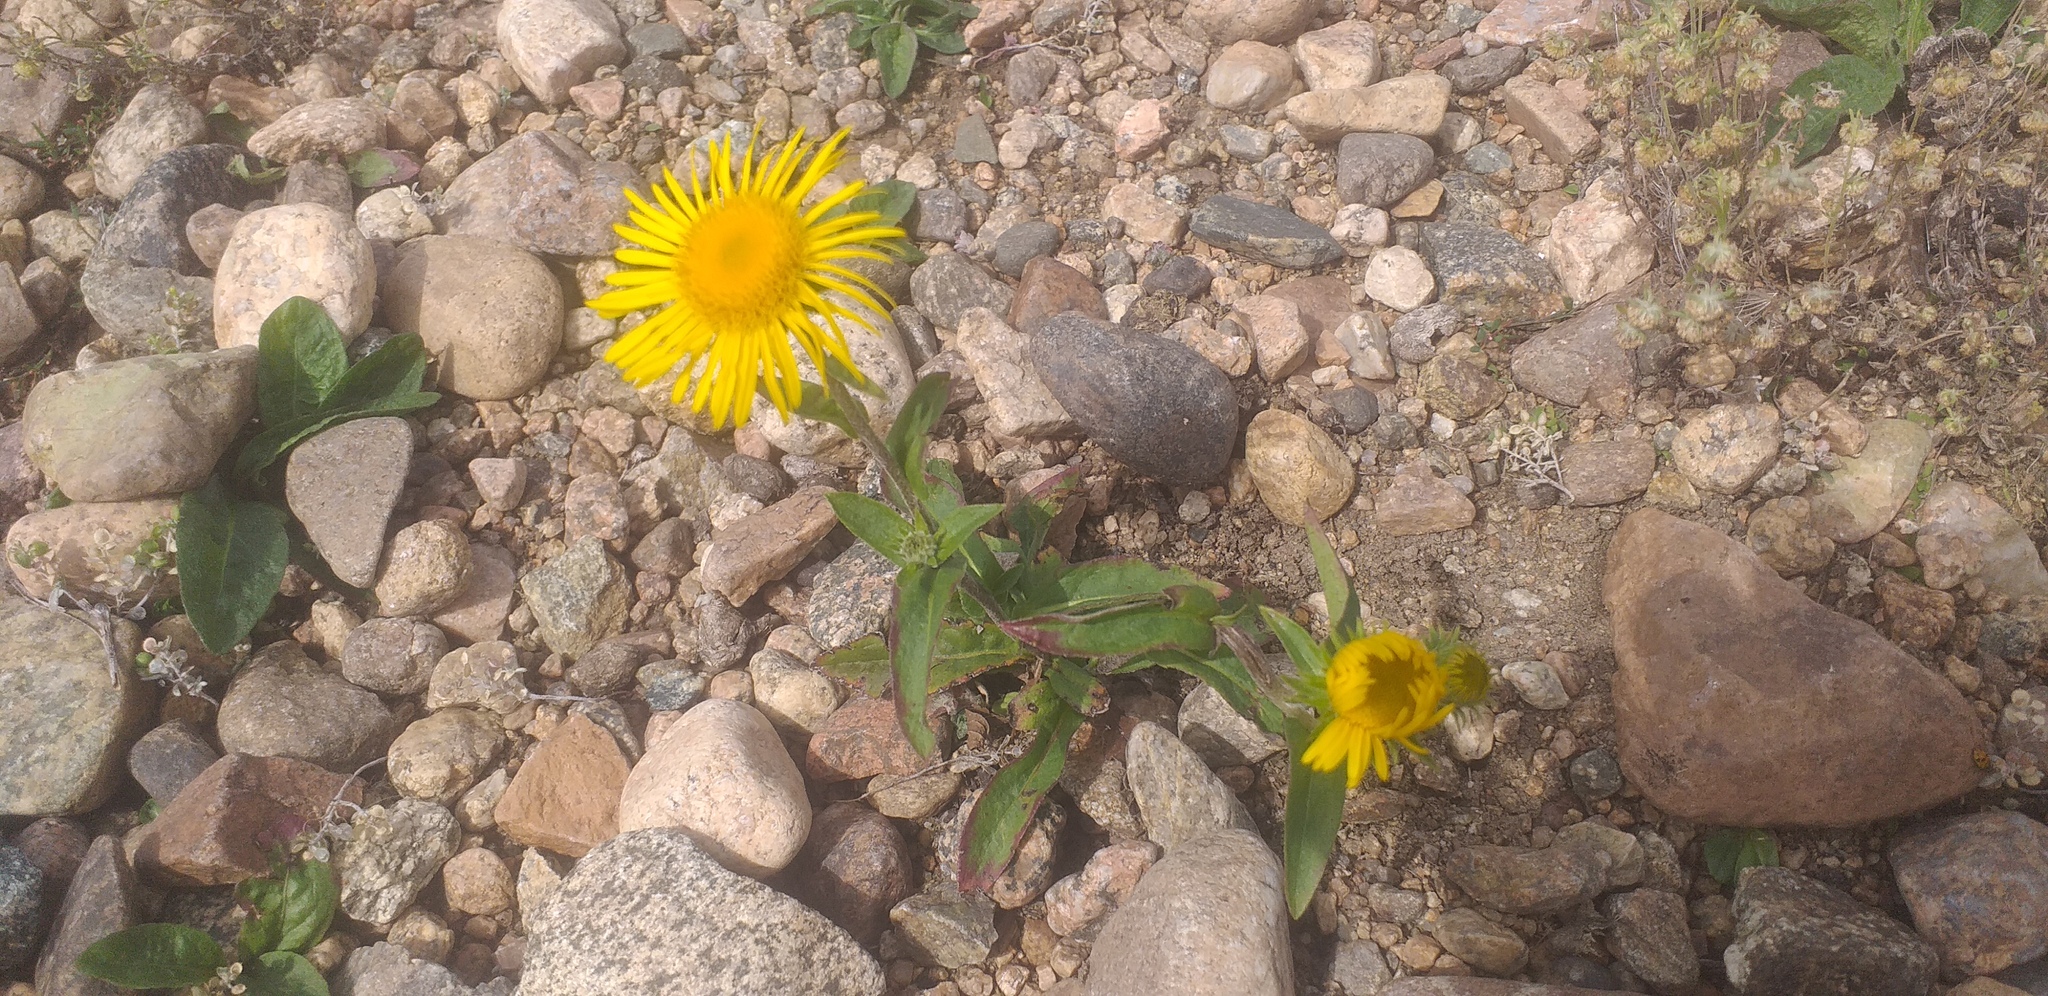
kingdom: Plantae
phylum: Tracheophyta
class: Magnoliopsida
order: Asterales
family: Asteraceae
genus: Pentanema
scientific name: Pentanema britannicum
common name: British elecampane
